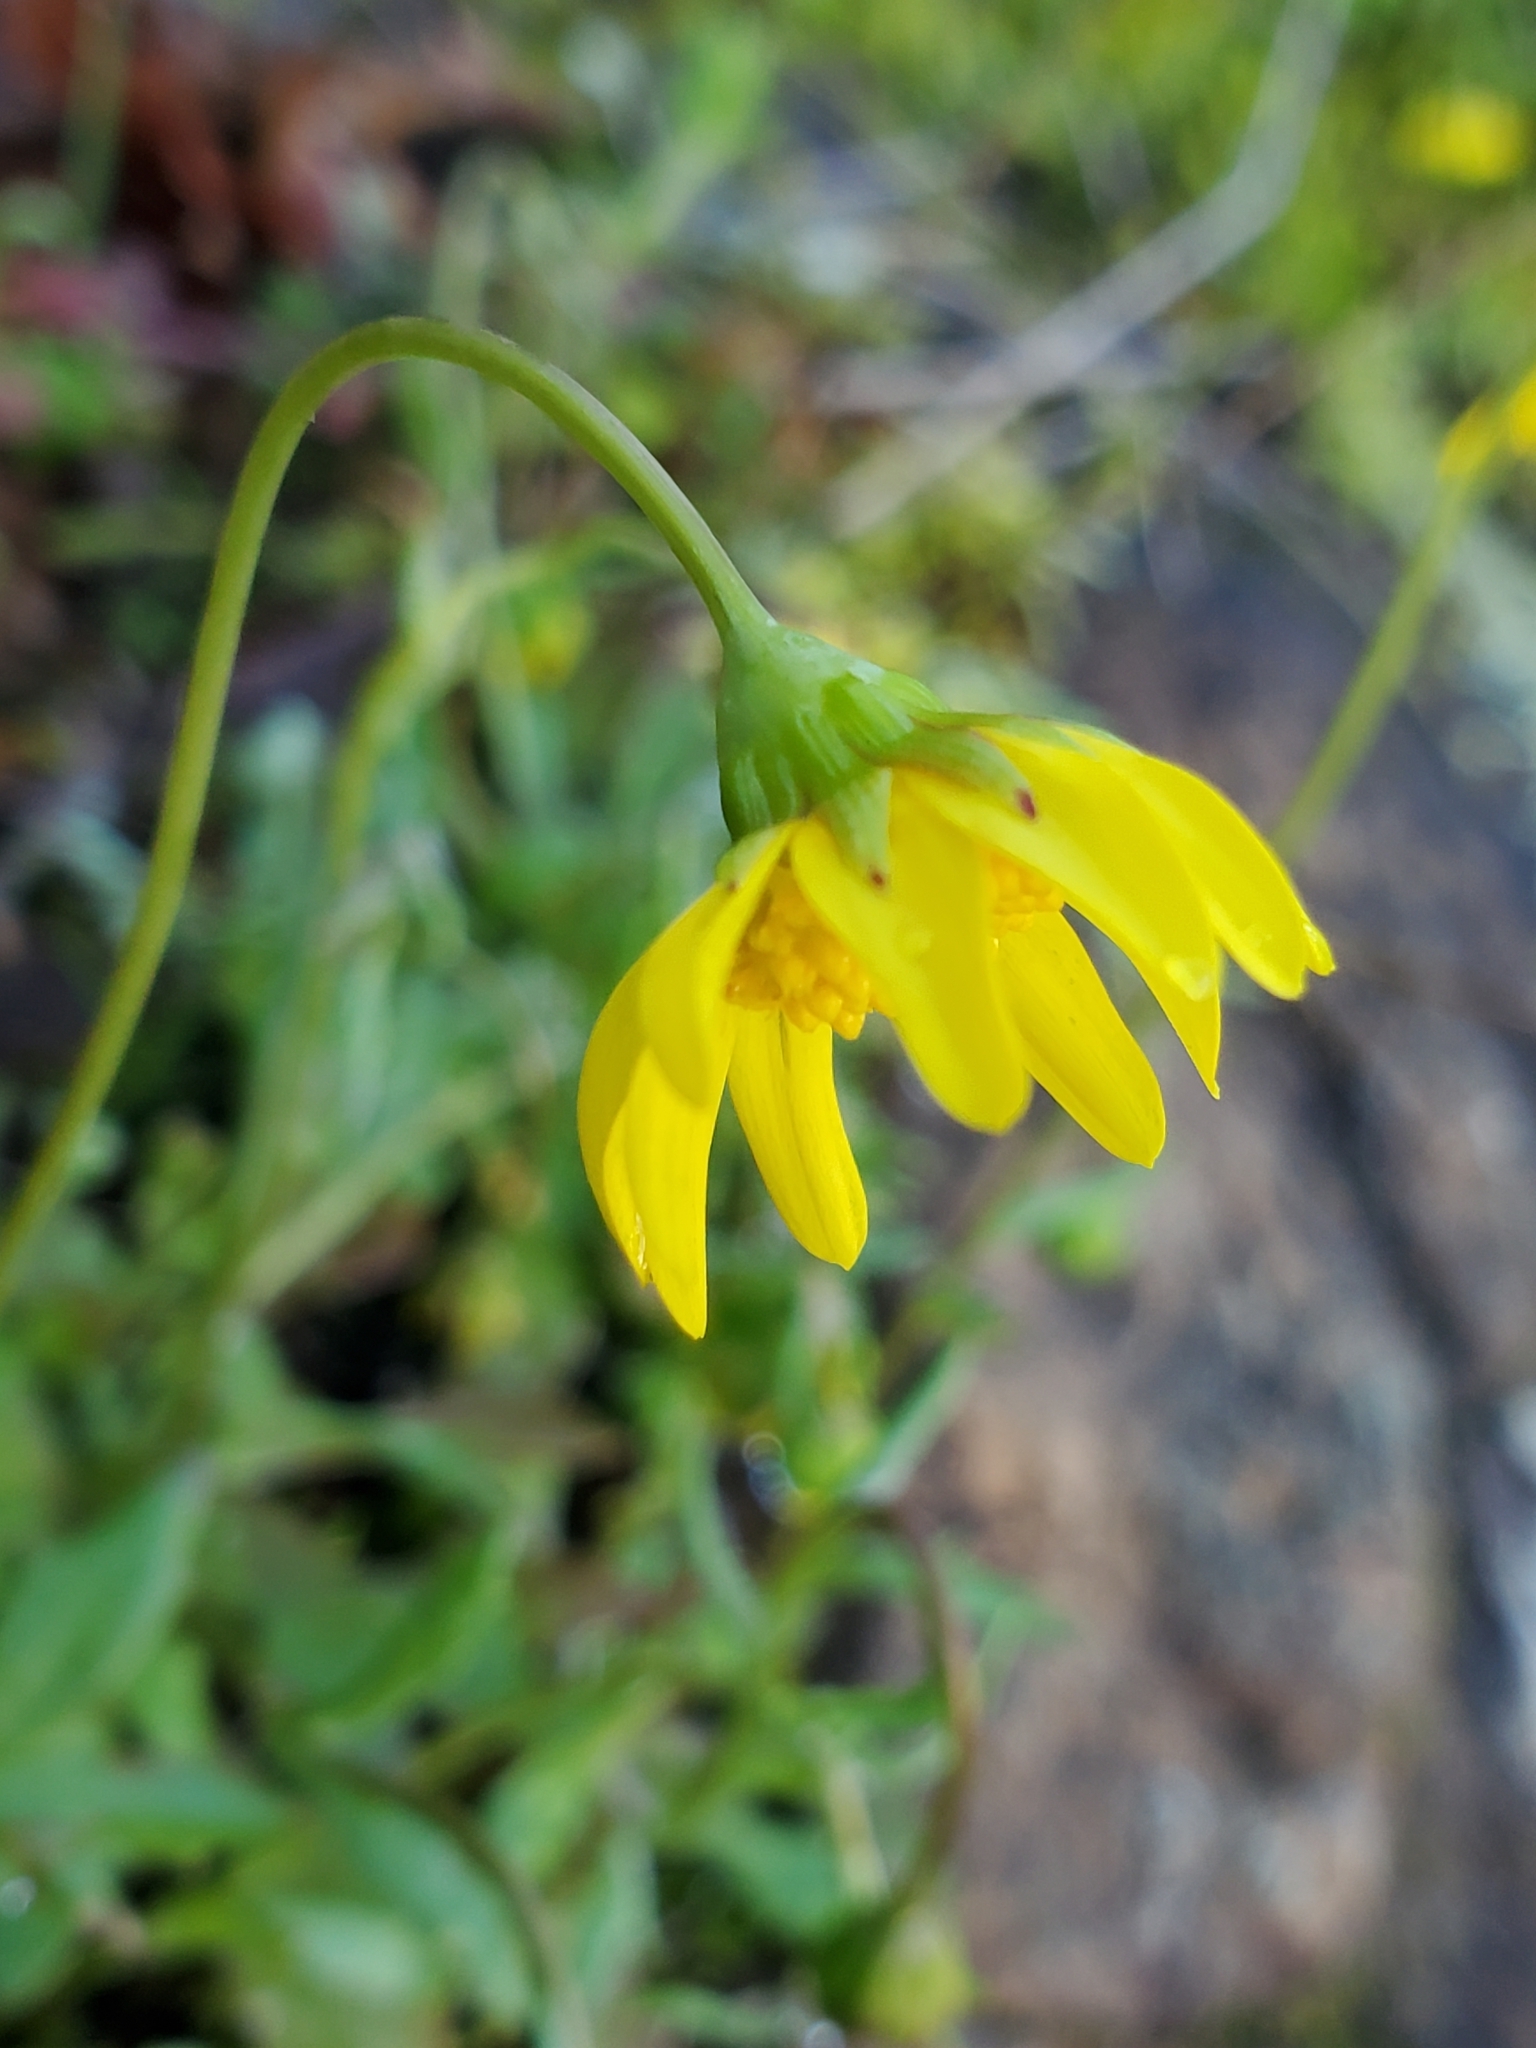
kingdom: Plantae
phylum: Tracheophyta
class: Magnoliopsida
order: Asterales
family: Asteraceae
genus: Crocidium
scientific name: Crocidium multicaule
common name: Common spring gold
